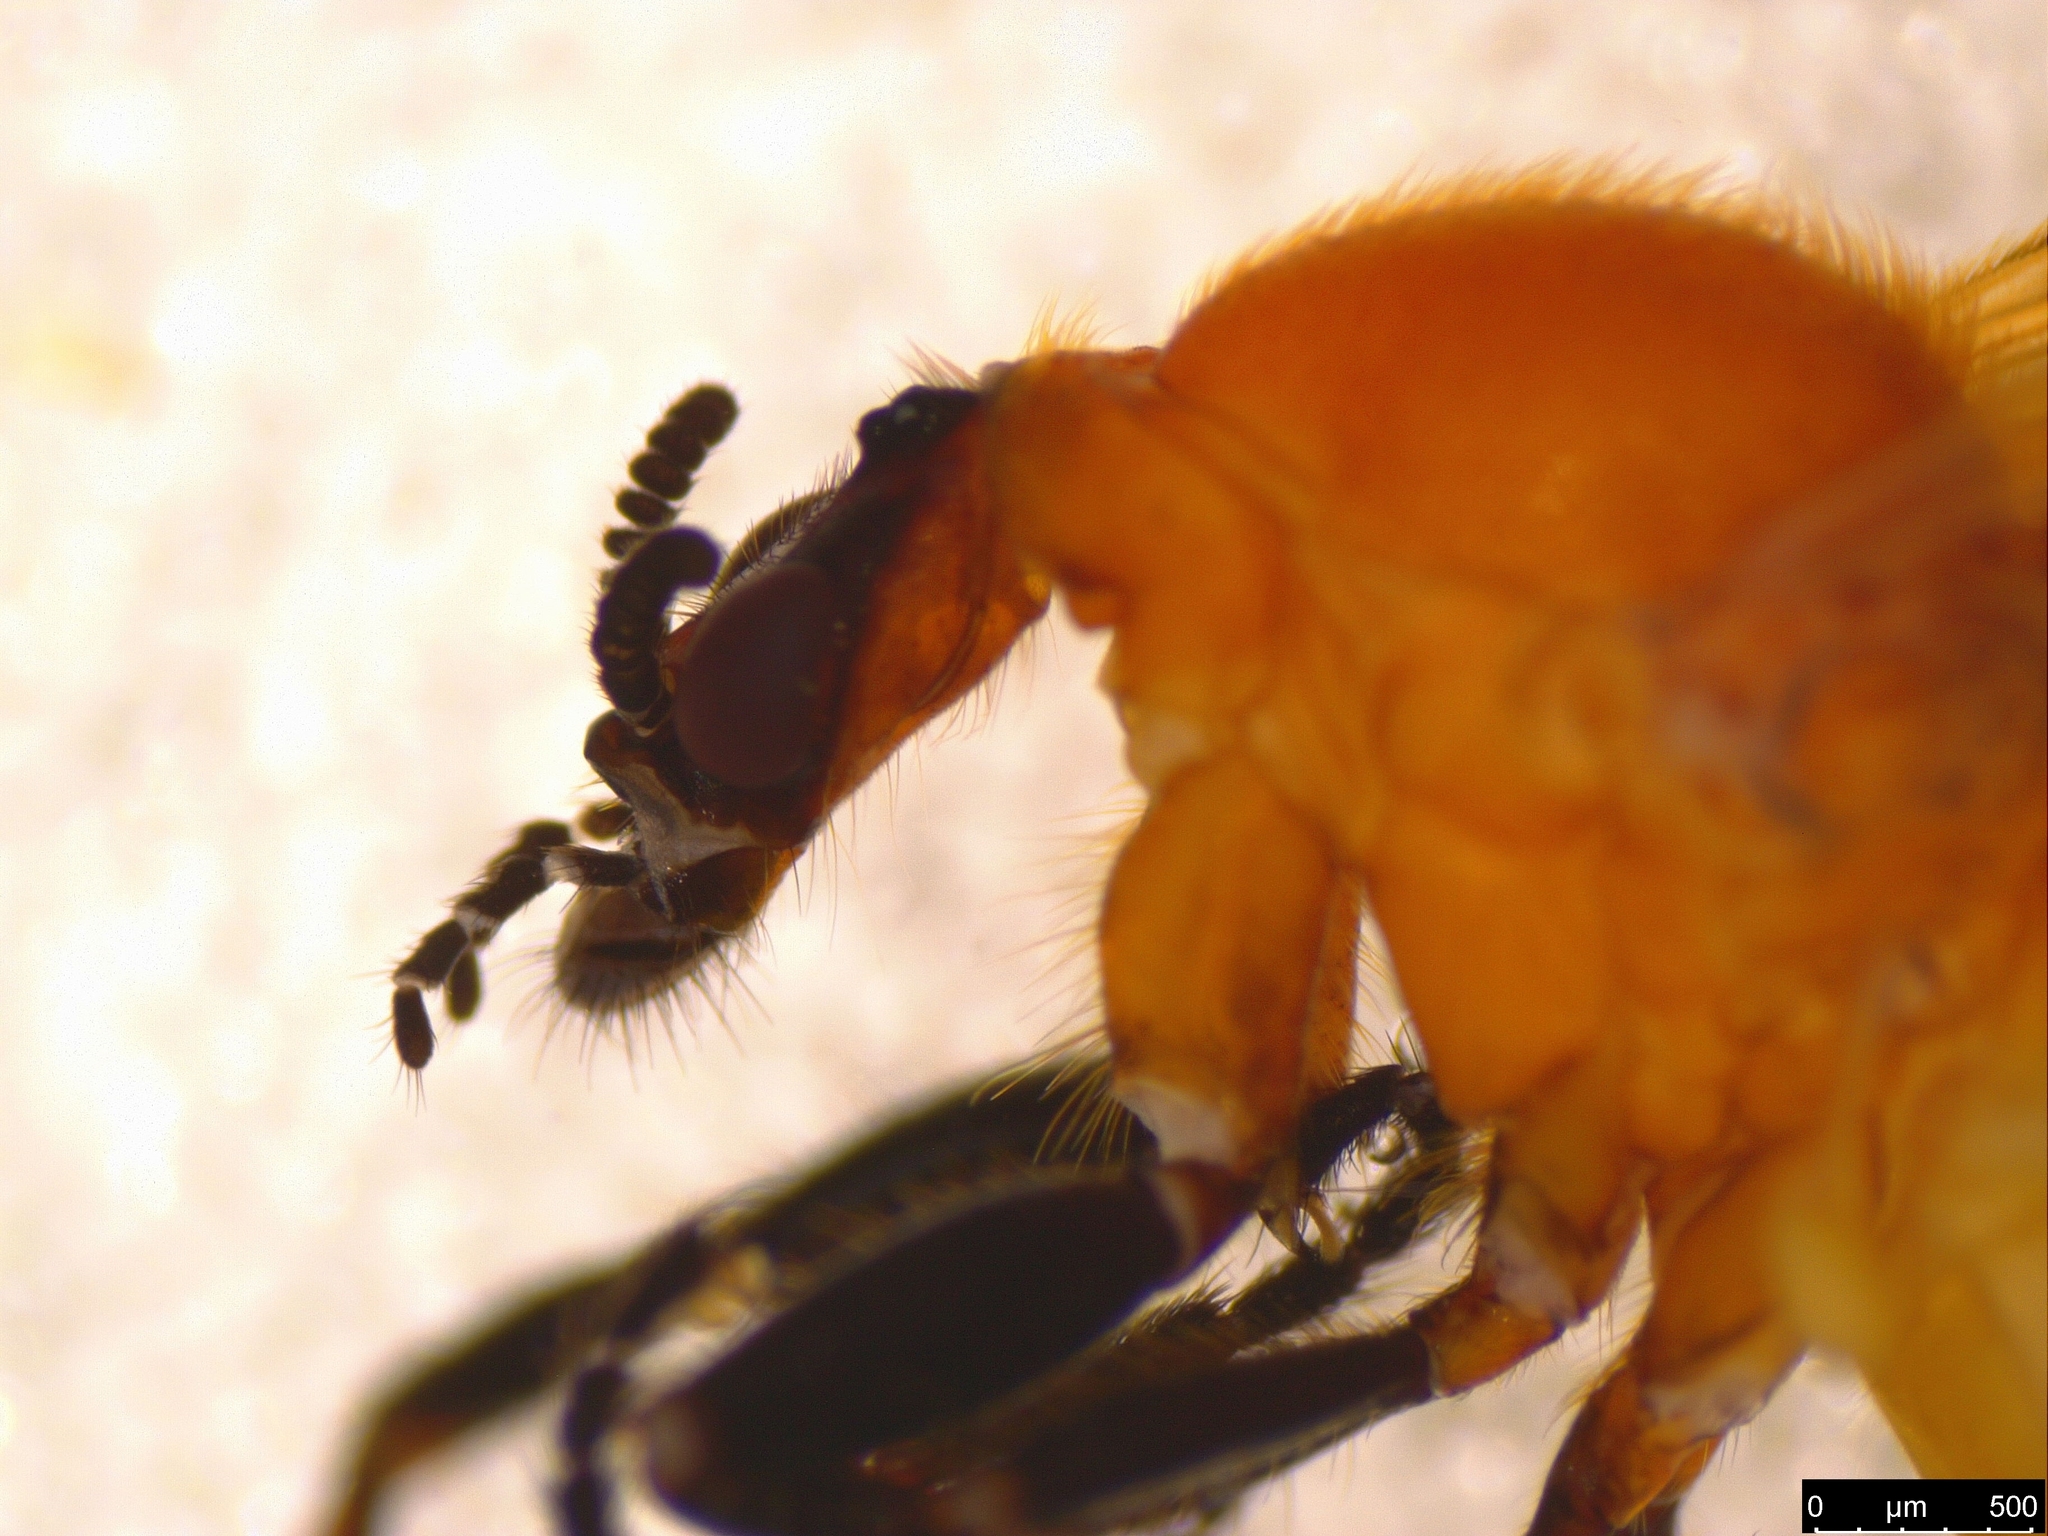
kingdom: Animalia
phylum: Arthropoda
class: Insecta
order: Diptera
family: Bibionidae
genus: Bibio
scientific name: Bibio imitator
